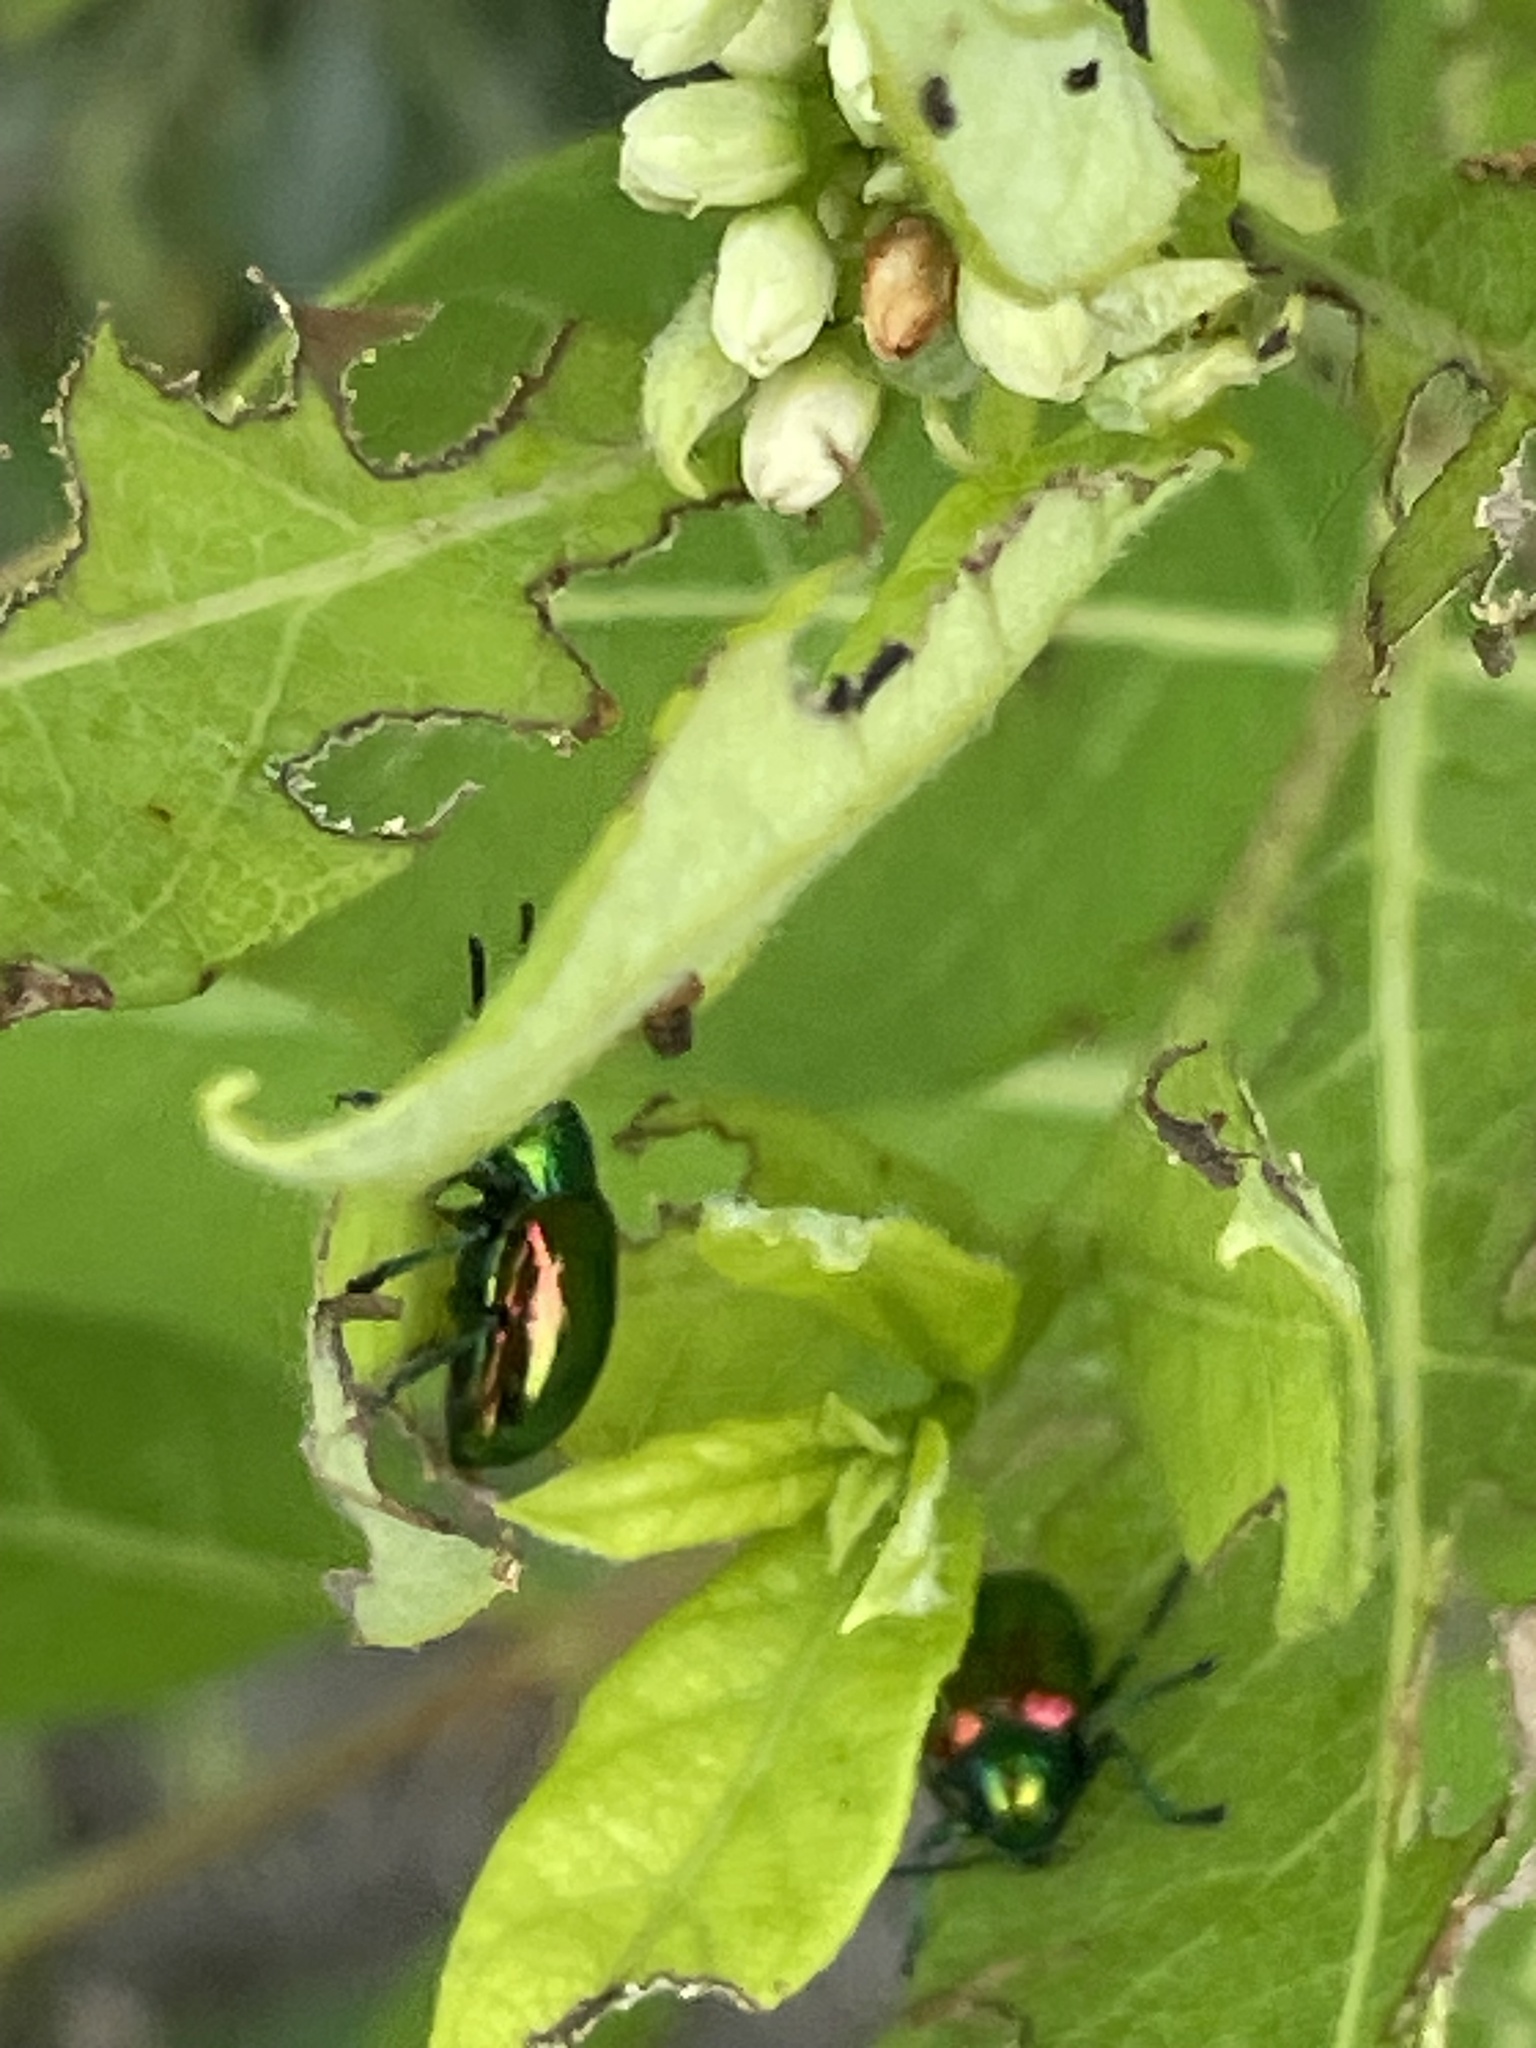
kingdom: Animalia
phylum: Arthropoda
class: Insecta
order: Coleoptera
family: Chrysomelidae
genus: Chrysochus
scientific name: Chrysochus auratus
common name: Dogbane leaf beetle
